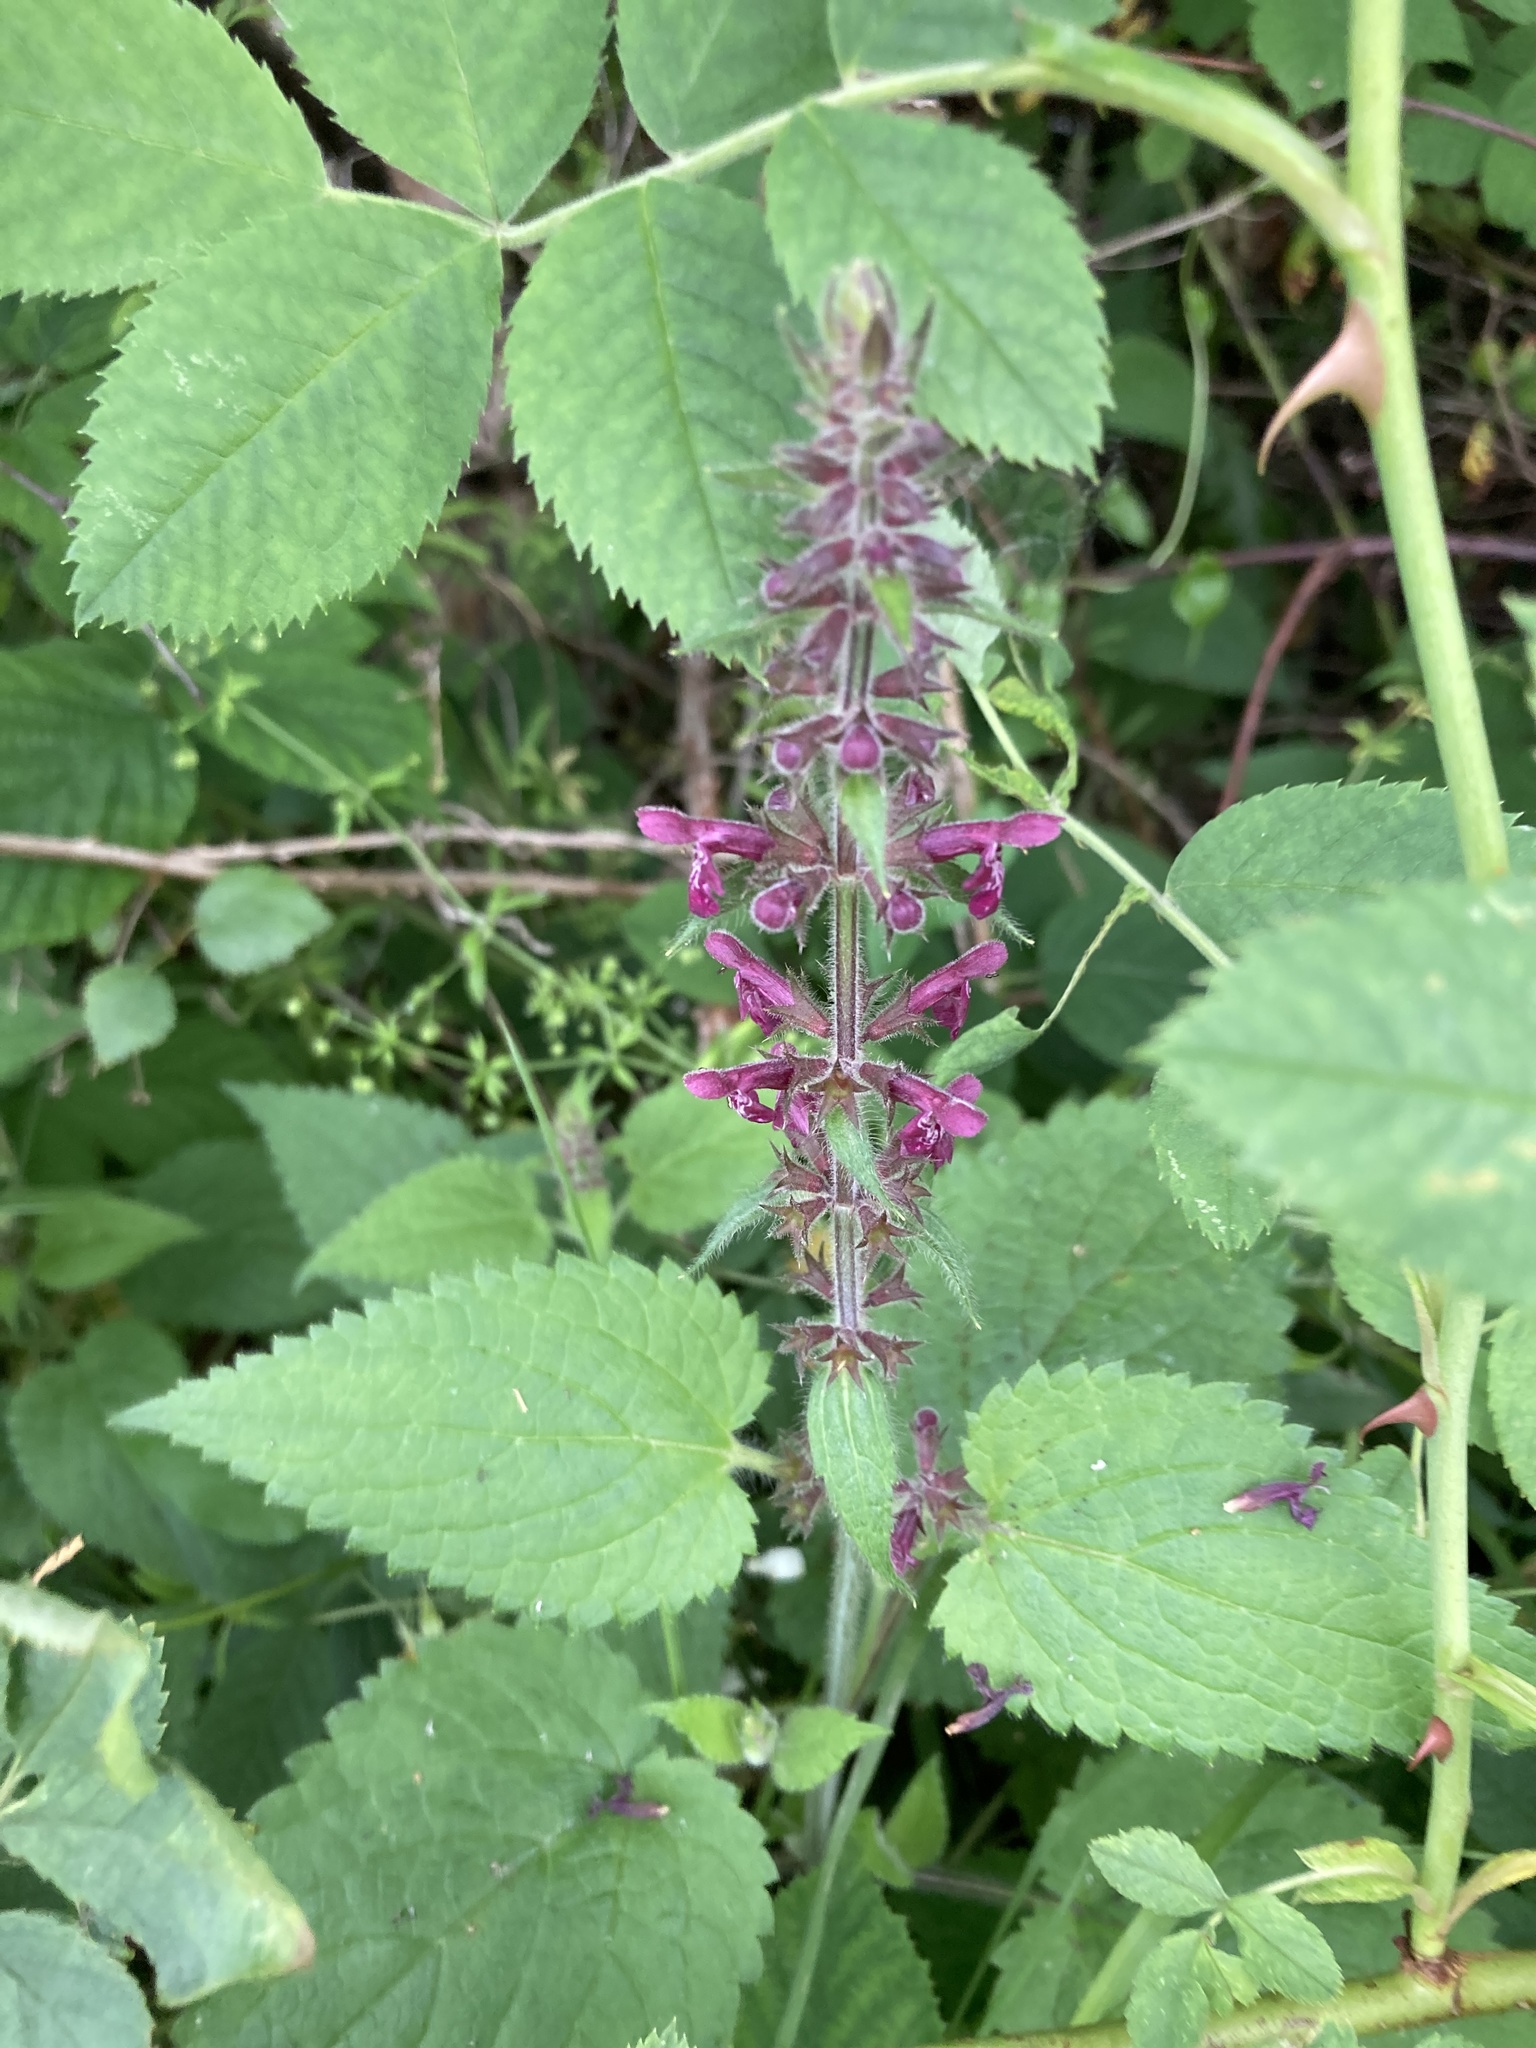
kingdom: Plantae
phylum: Tracheophyta
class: Magnoliopsida
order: Lamiales
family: Lamiaceae
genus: Stachys
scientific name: Stachys sylvatica
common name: Hedge woundwort
